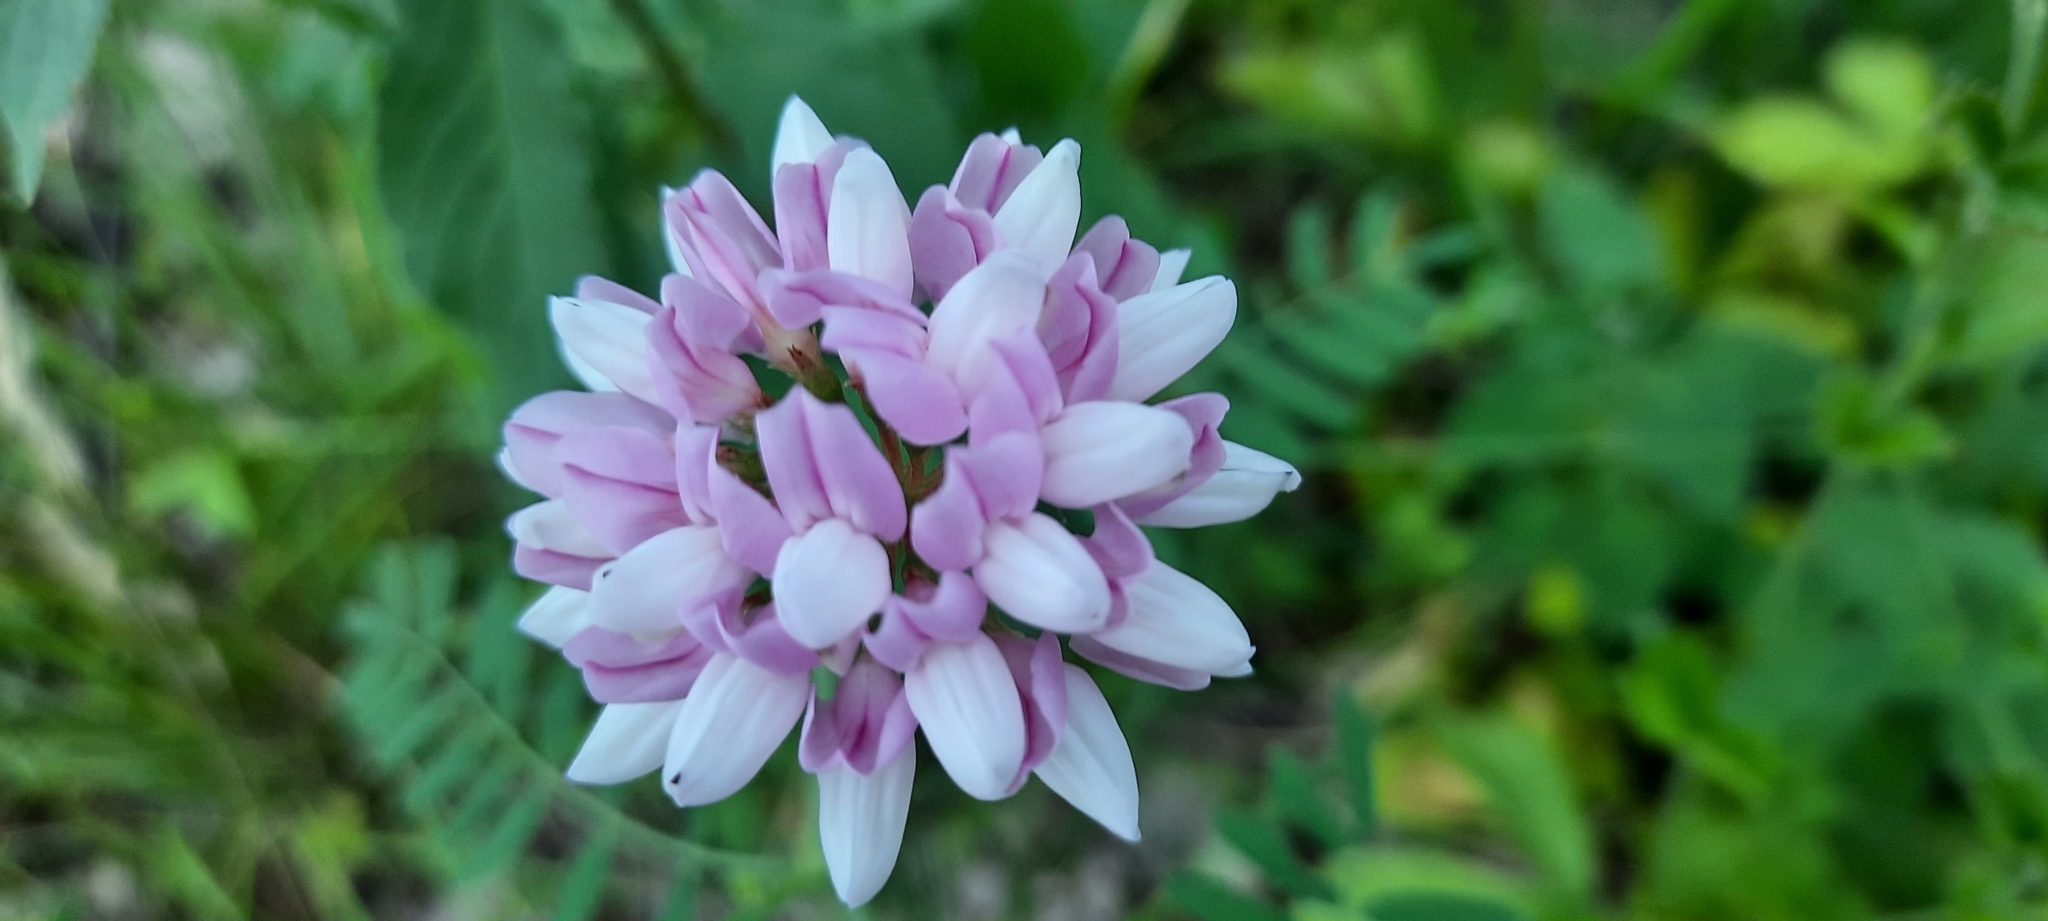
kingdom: Plantae
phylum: Tracheophyta
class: Magnoliopsida
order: Fabales
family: Fabaceae
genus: Coronilla
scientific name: Coronilla varia
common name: Crownvetch
